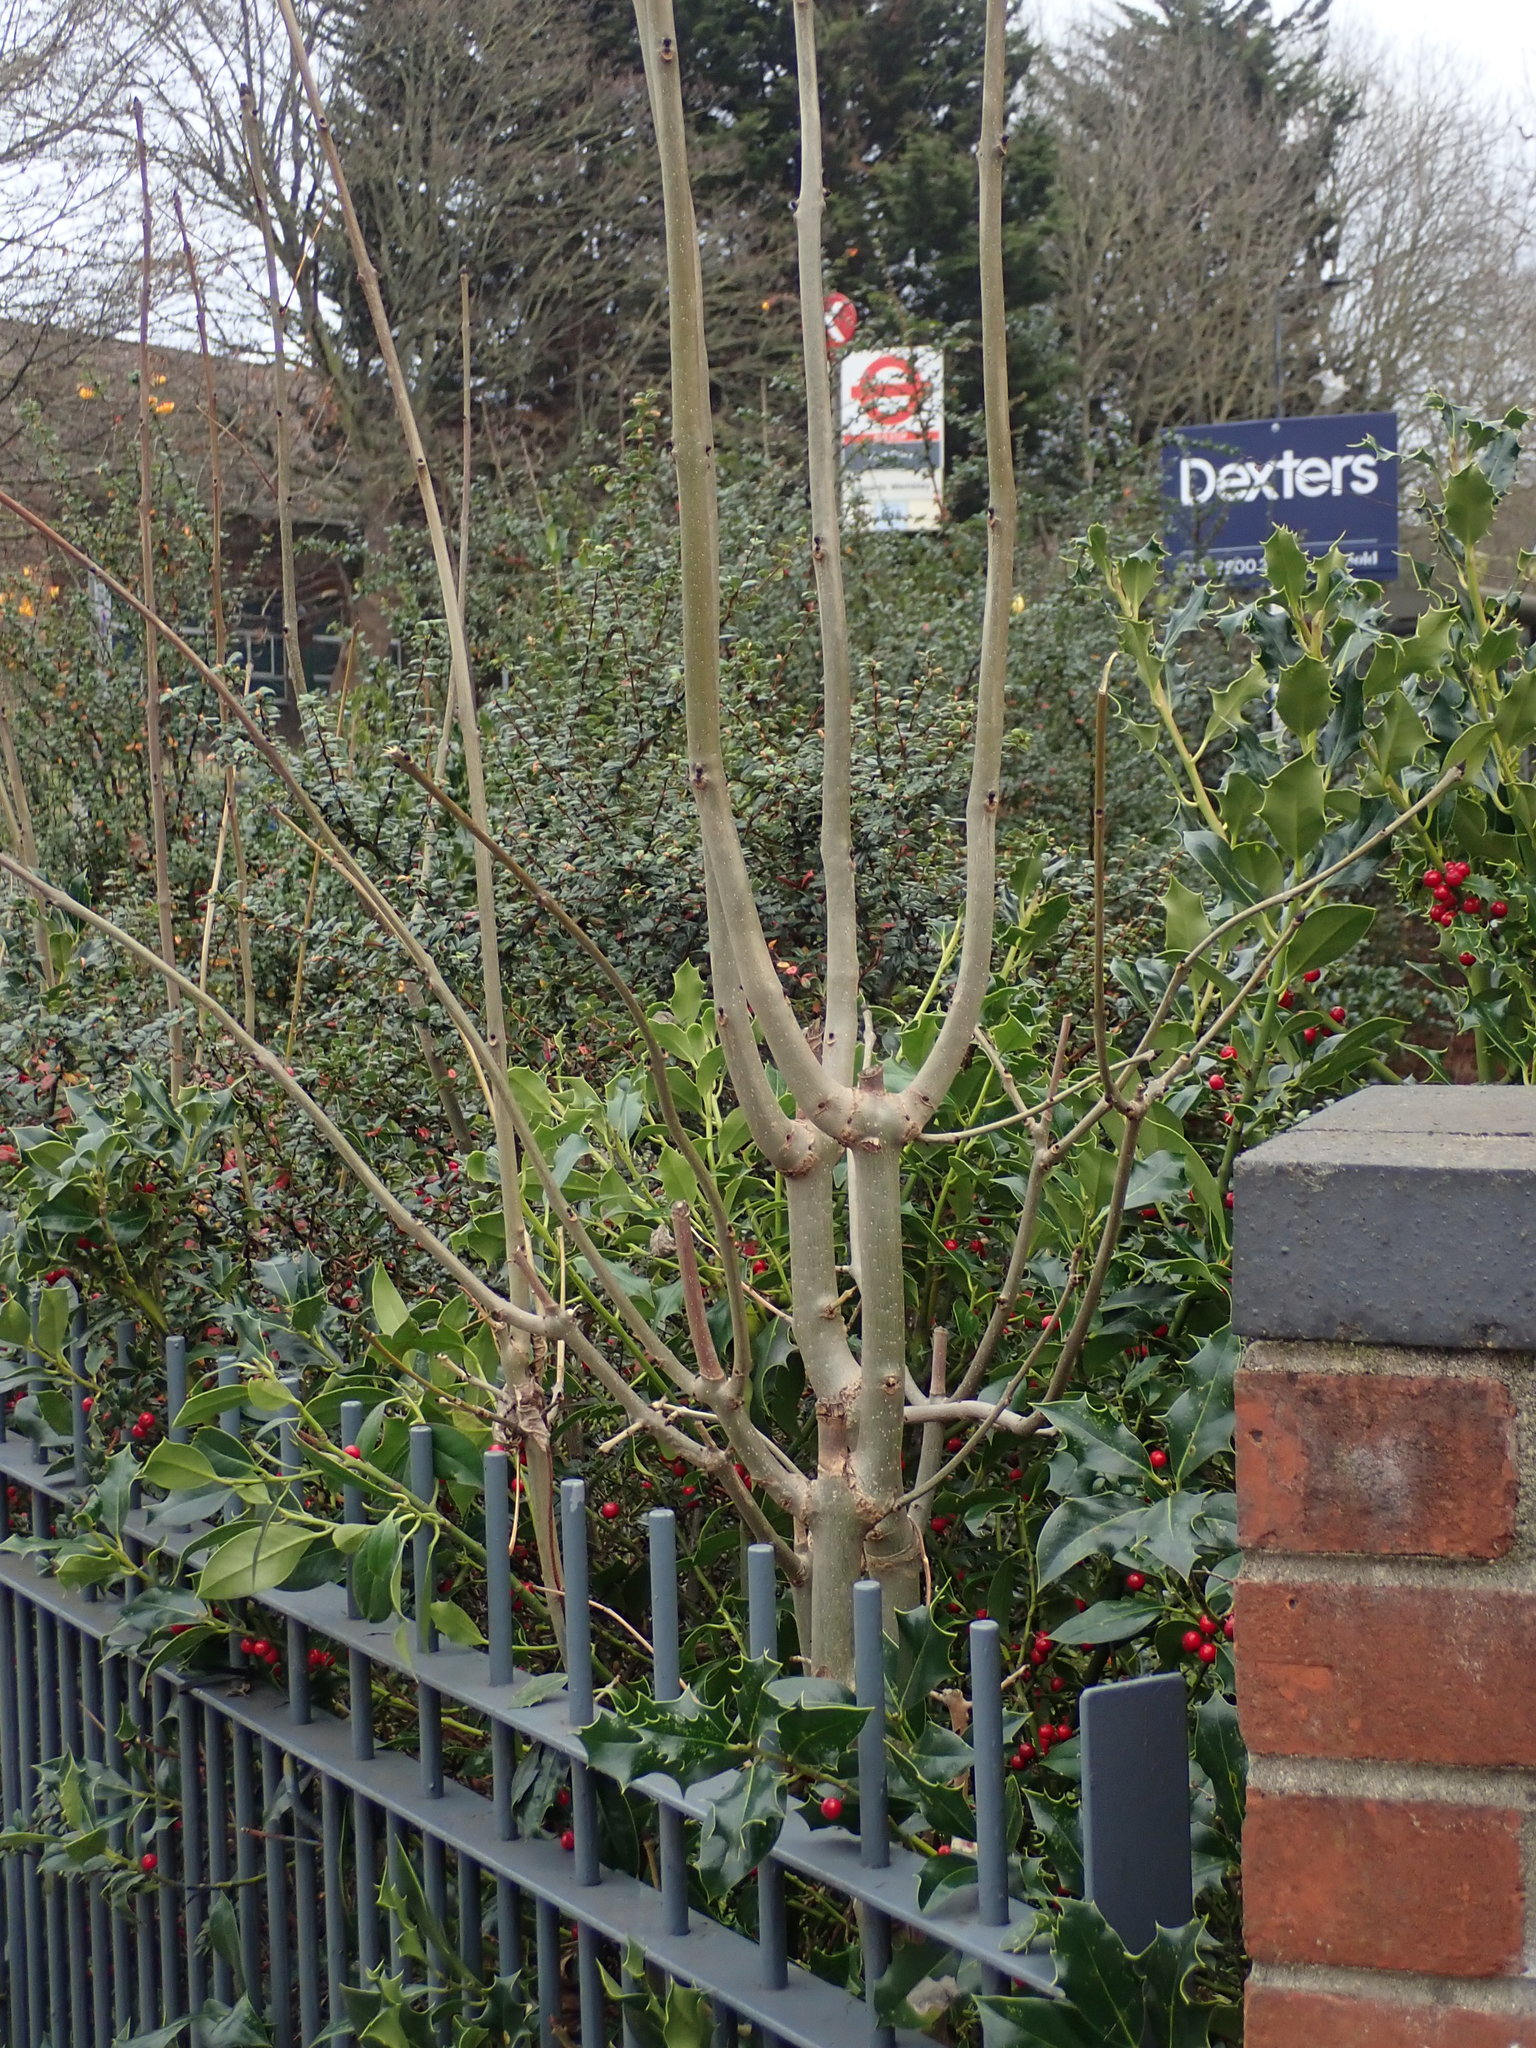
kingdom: Plantae
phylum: Tracheophyta
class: Magnoliopsida
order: Lamiales
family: Oleaceae
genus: Fraxinus
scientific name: Fraxinus excelsior
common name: European ash
